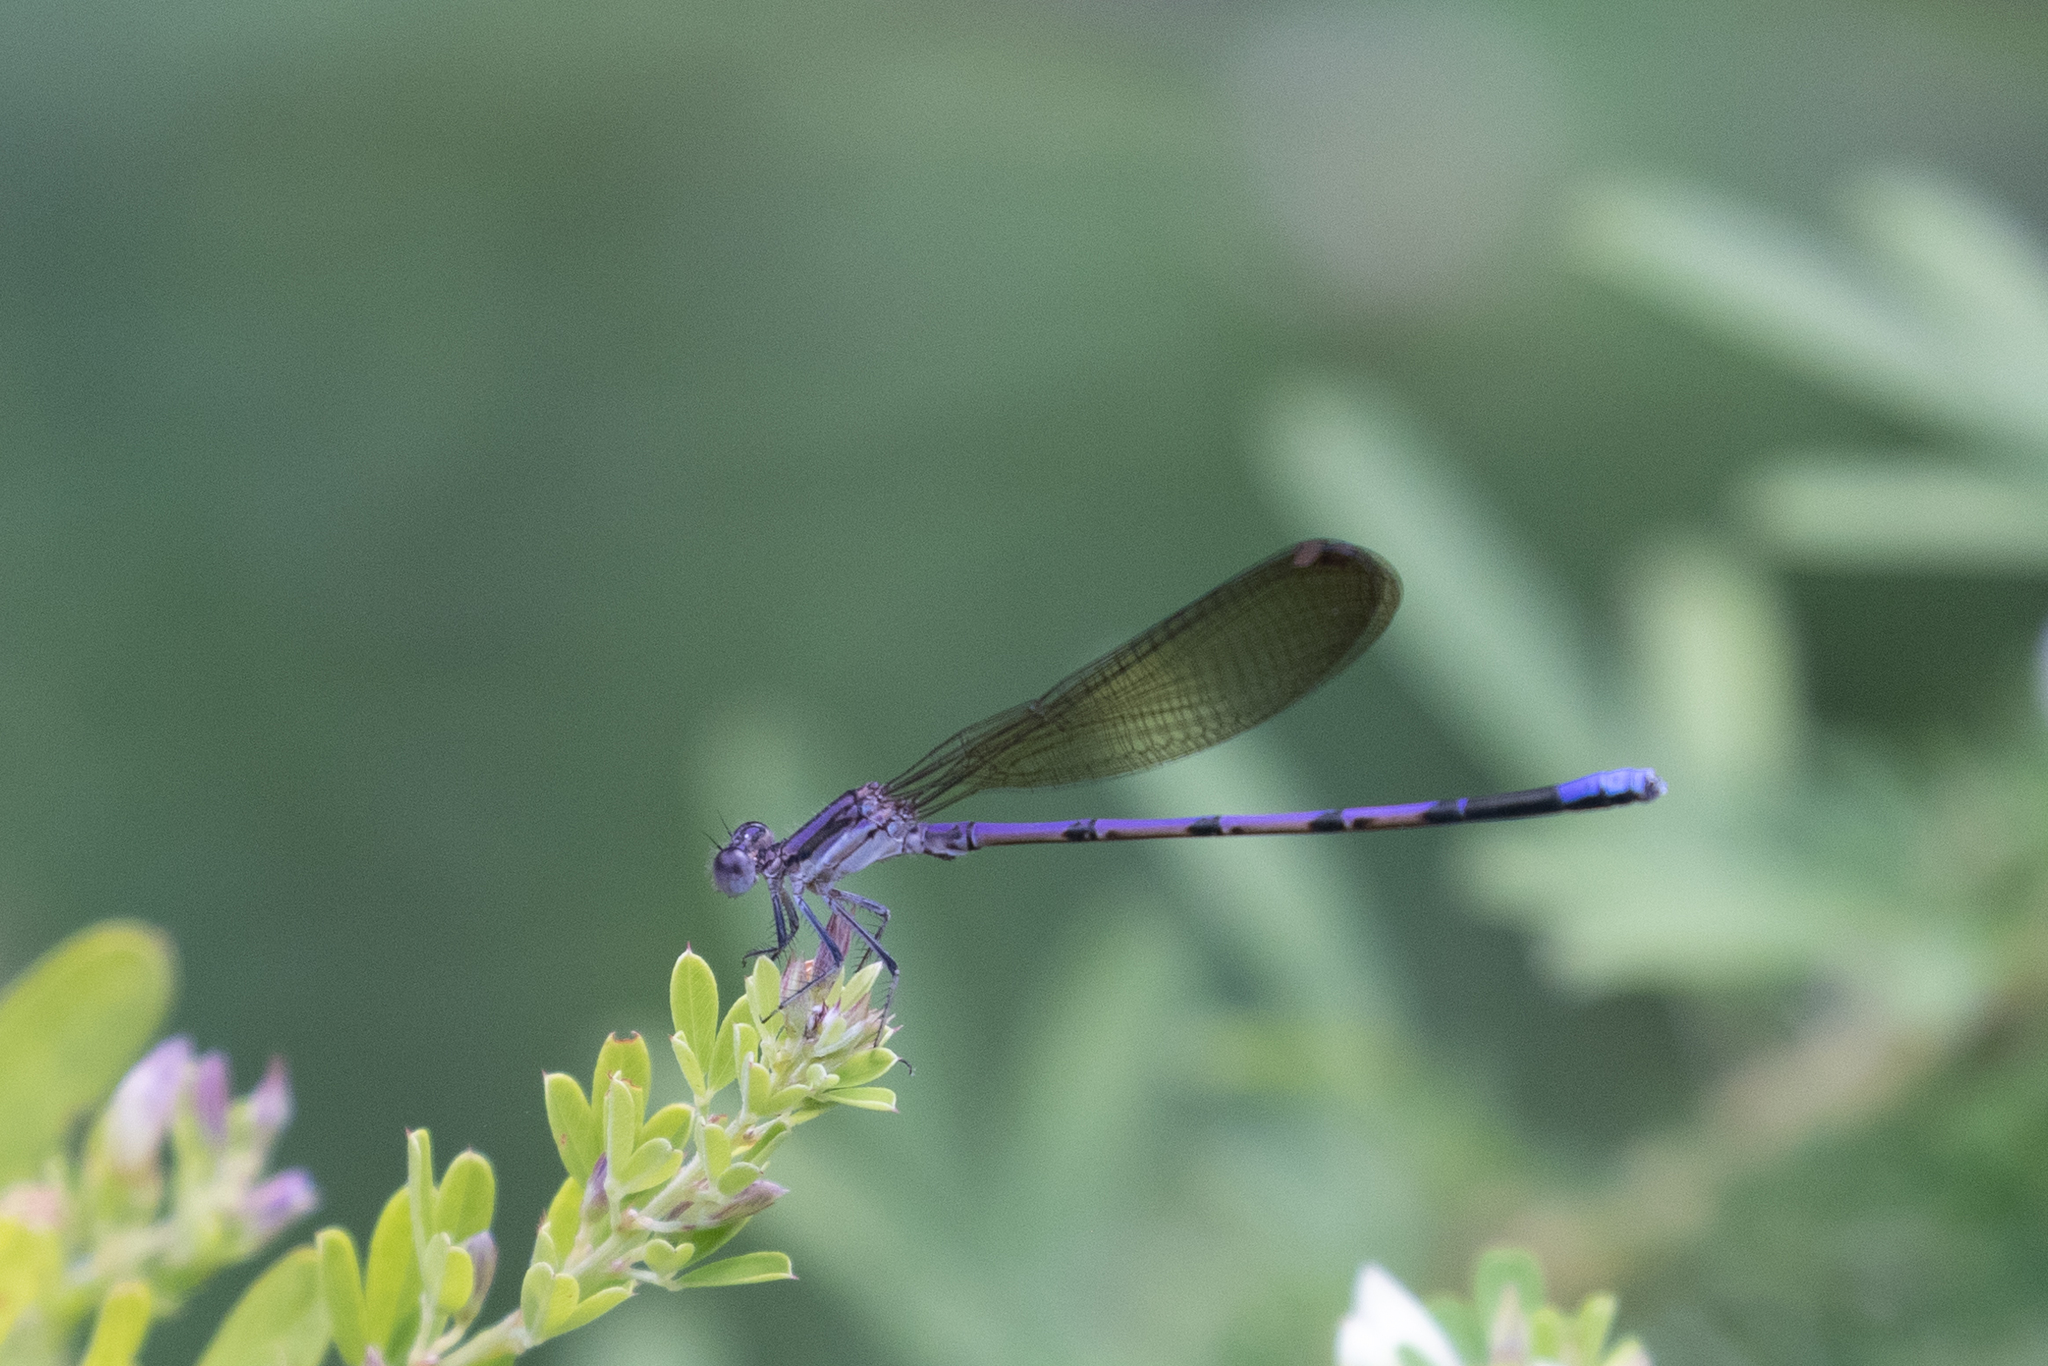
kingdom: Animalia
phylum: Arthropoda
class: Insecta
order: Odonata
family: Coenagrionidae
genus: Argia
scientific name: Argia fumipennis
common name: Variable dancer
